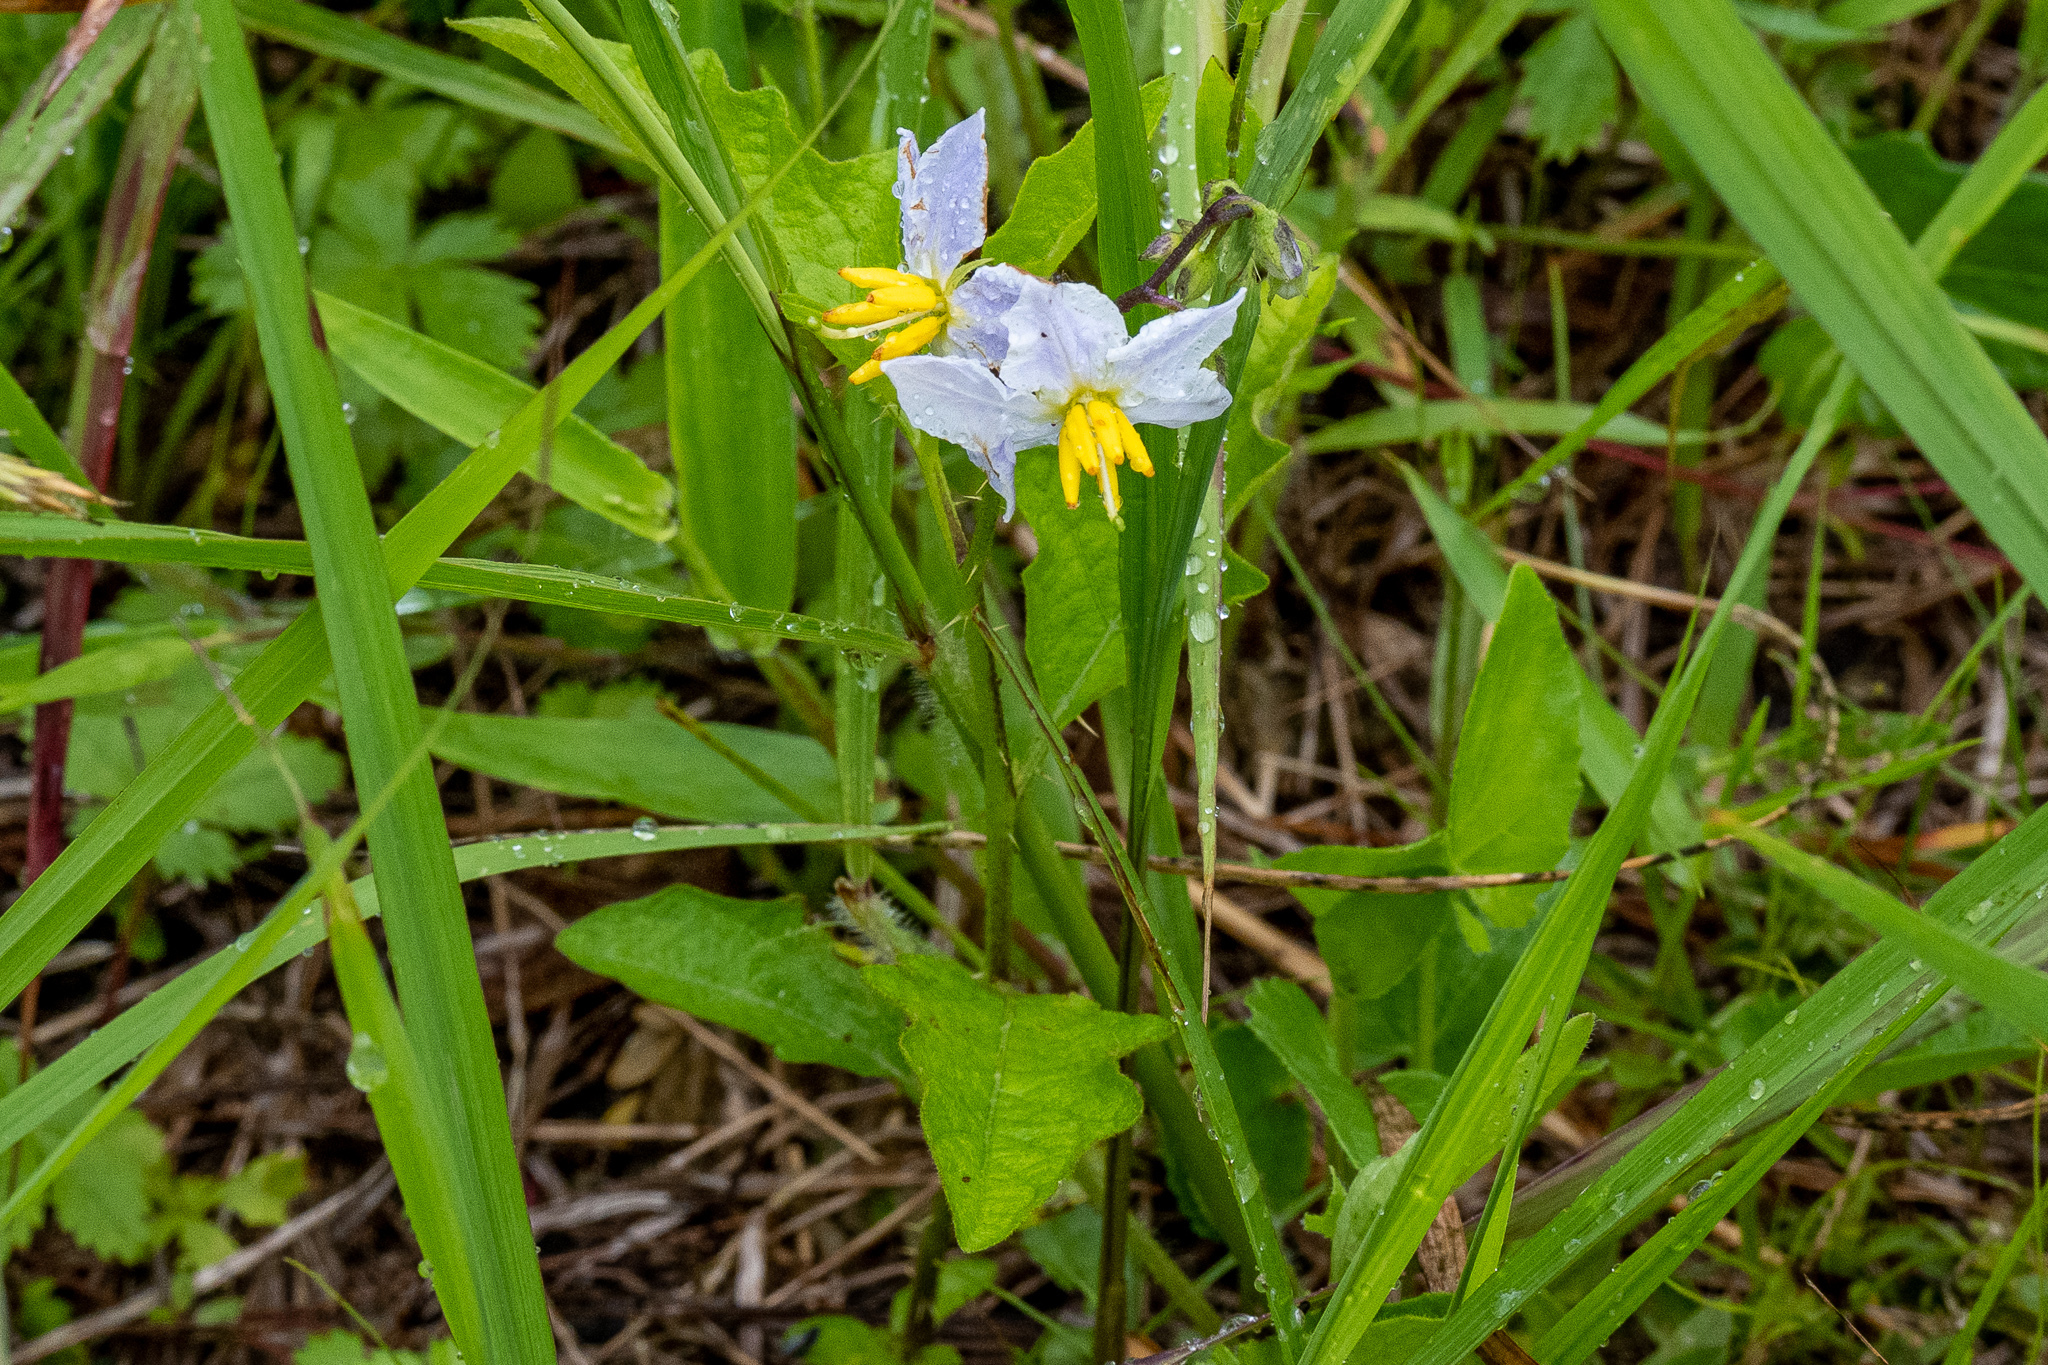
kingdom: Plantae
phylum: Tracheophyta
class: Magnoliopsida
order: Solanales
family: Solanaceae
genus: Solanum
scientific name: Solanum carolinense
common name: Horse-nettle
